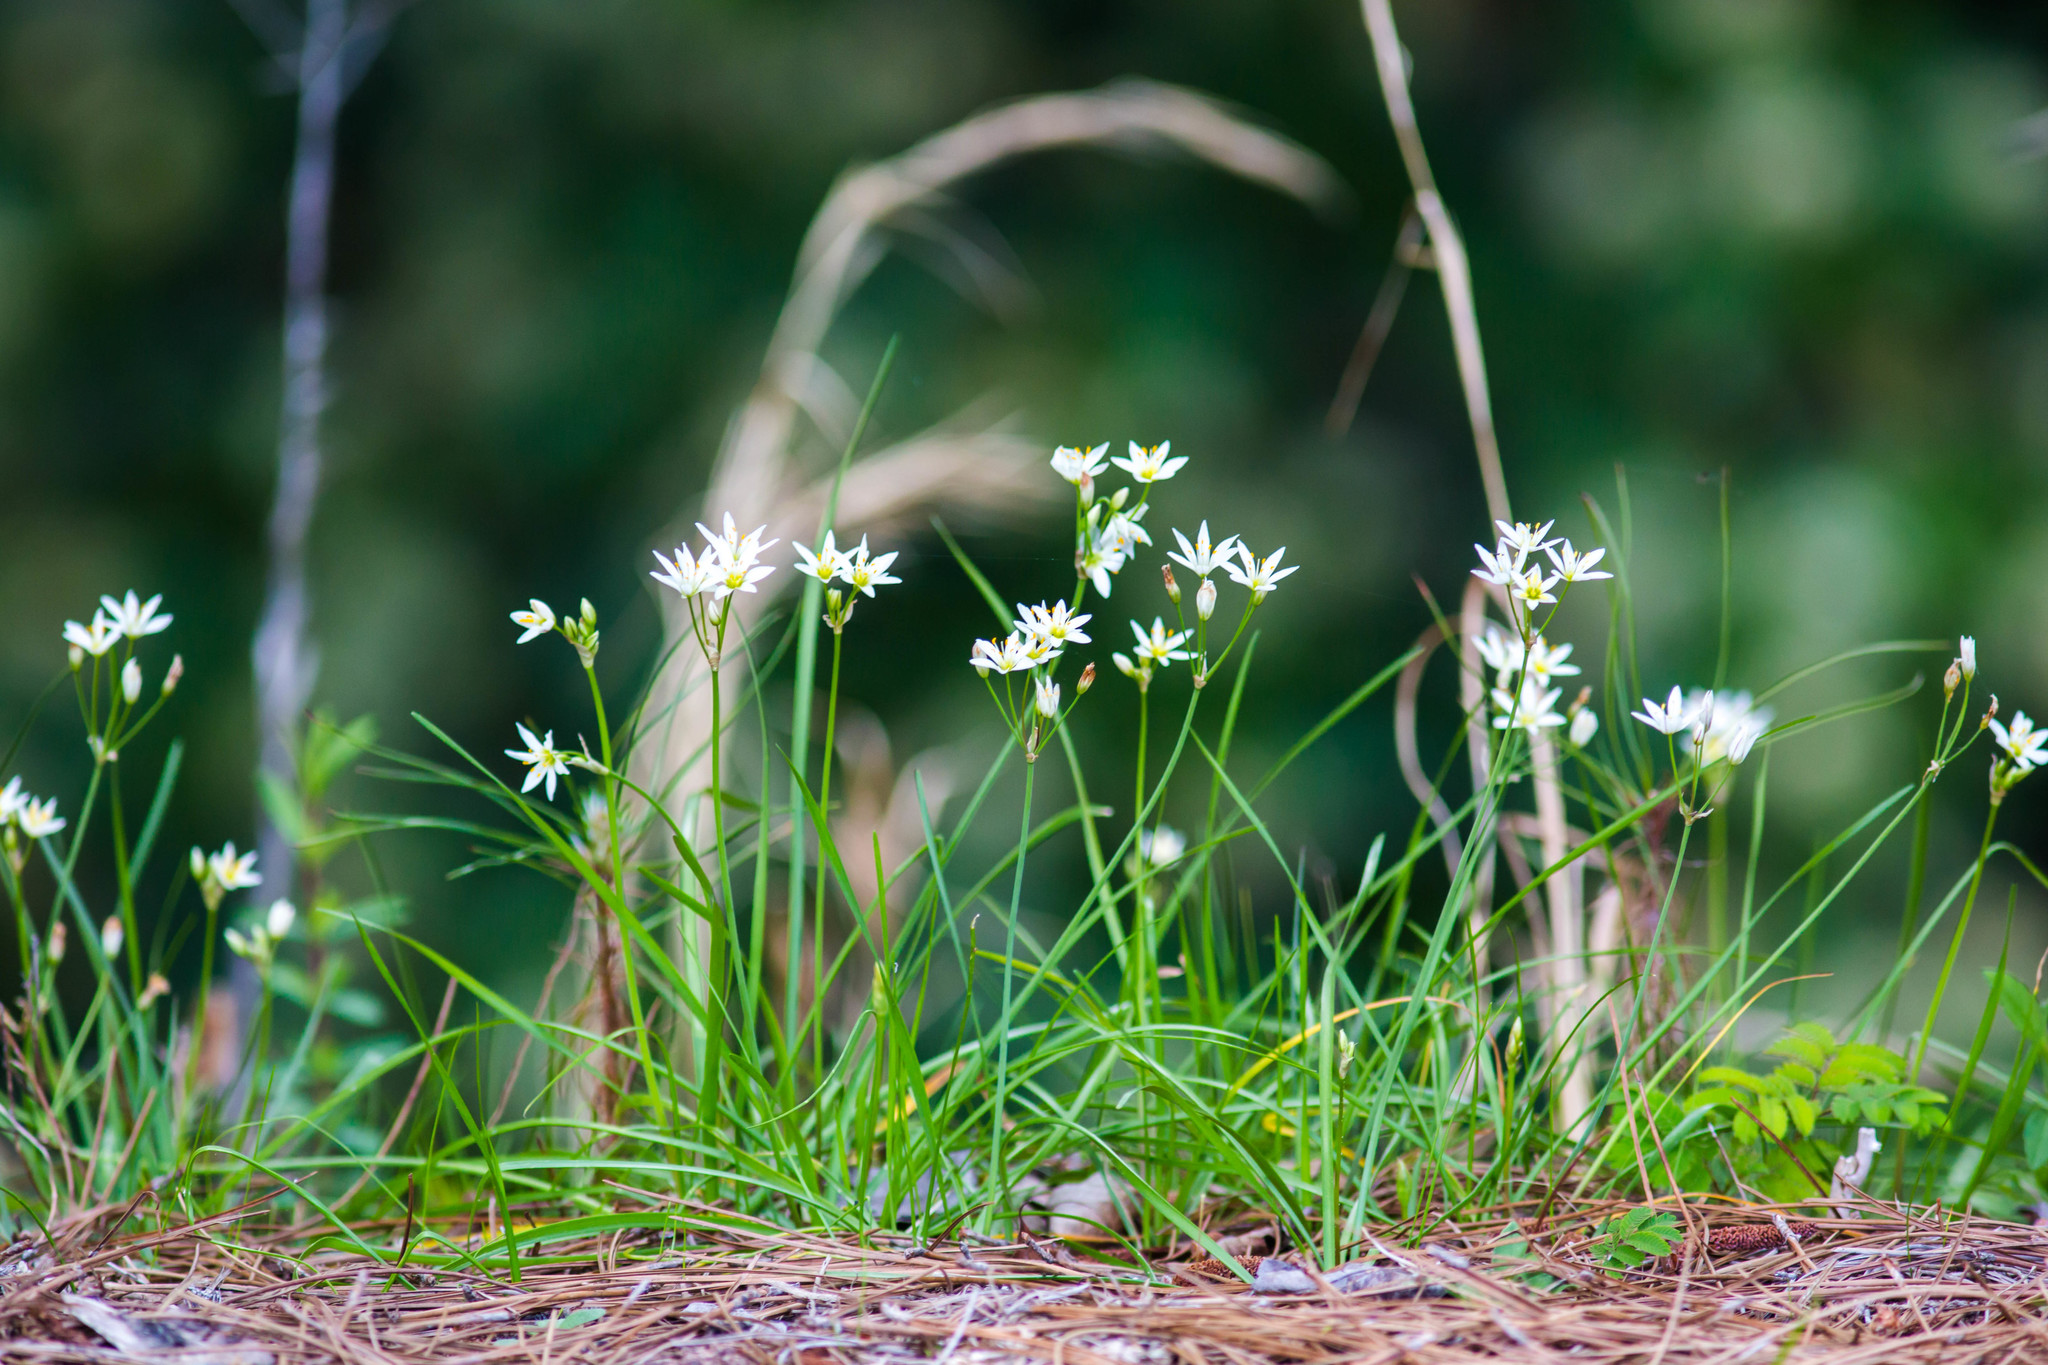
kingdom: Plantae
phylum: Tracheophyta
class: Liliopsida
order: Asparagales
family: Amaryllidaceae
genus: Nothoscordum
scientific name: Nothoscordum bivalve
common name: Crow-poison
